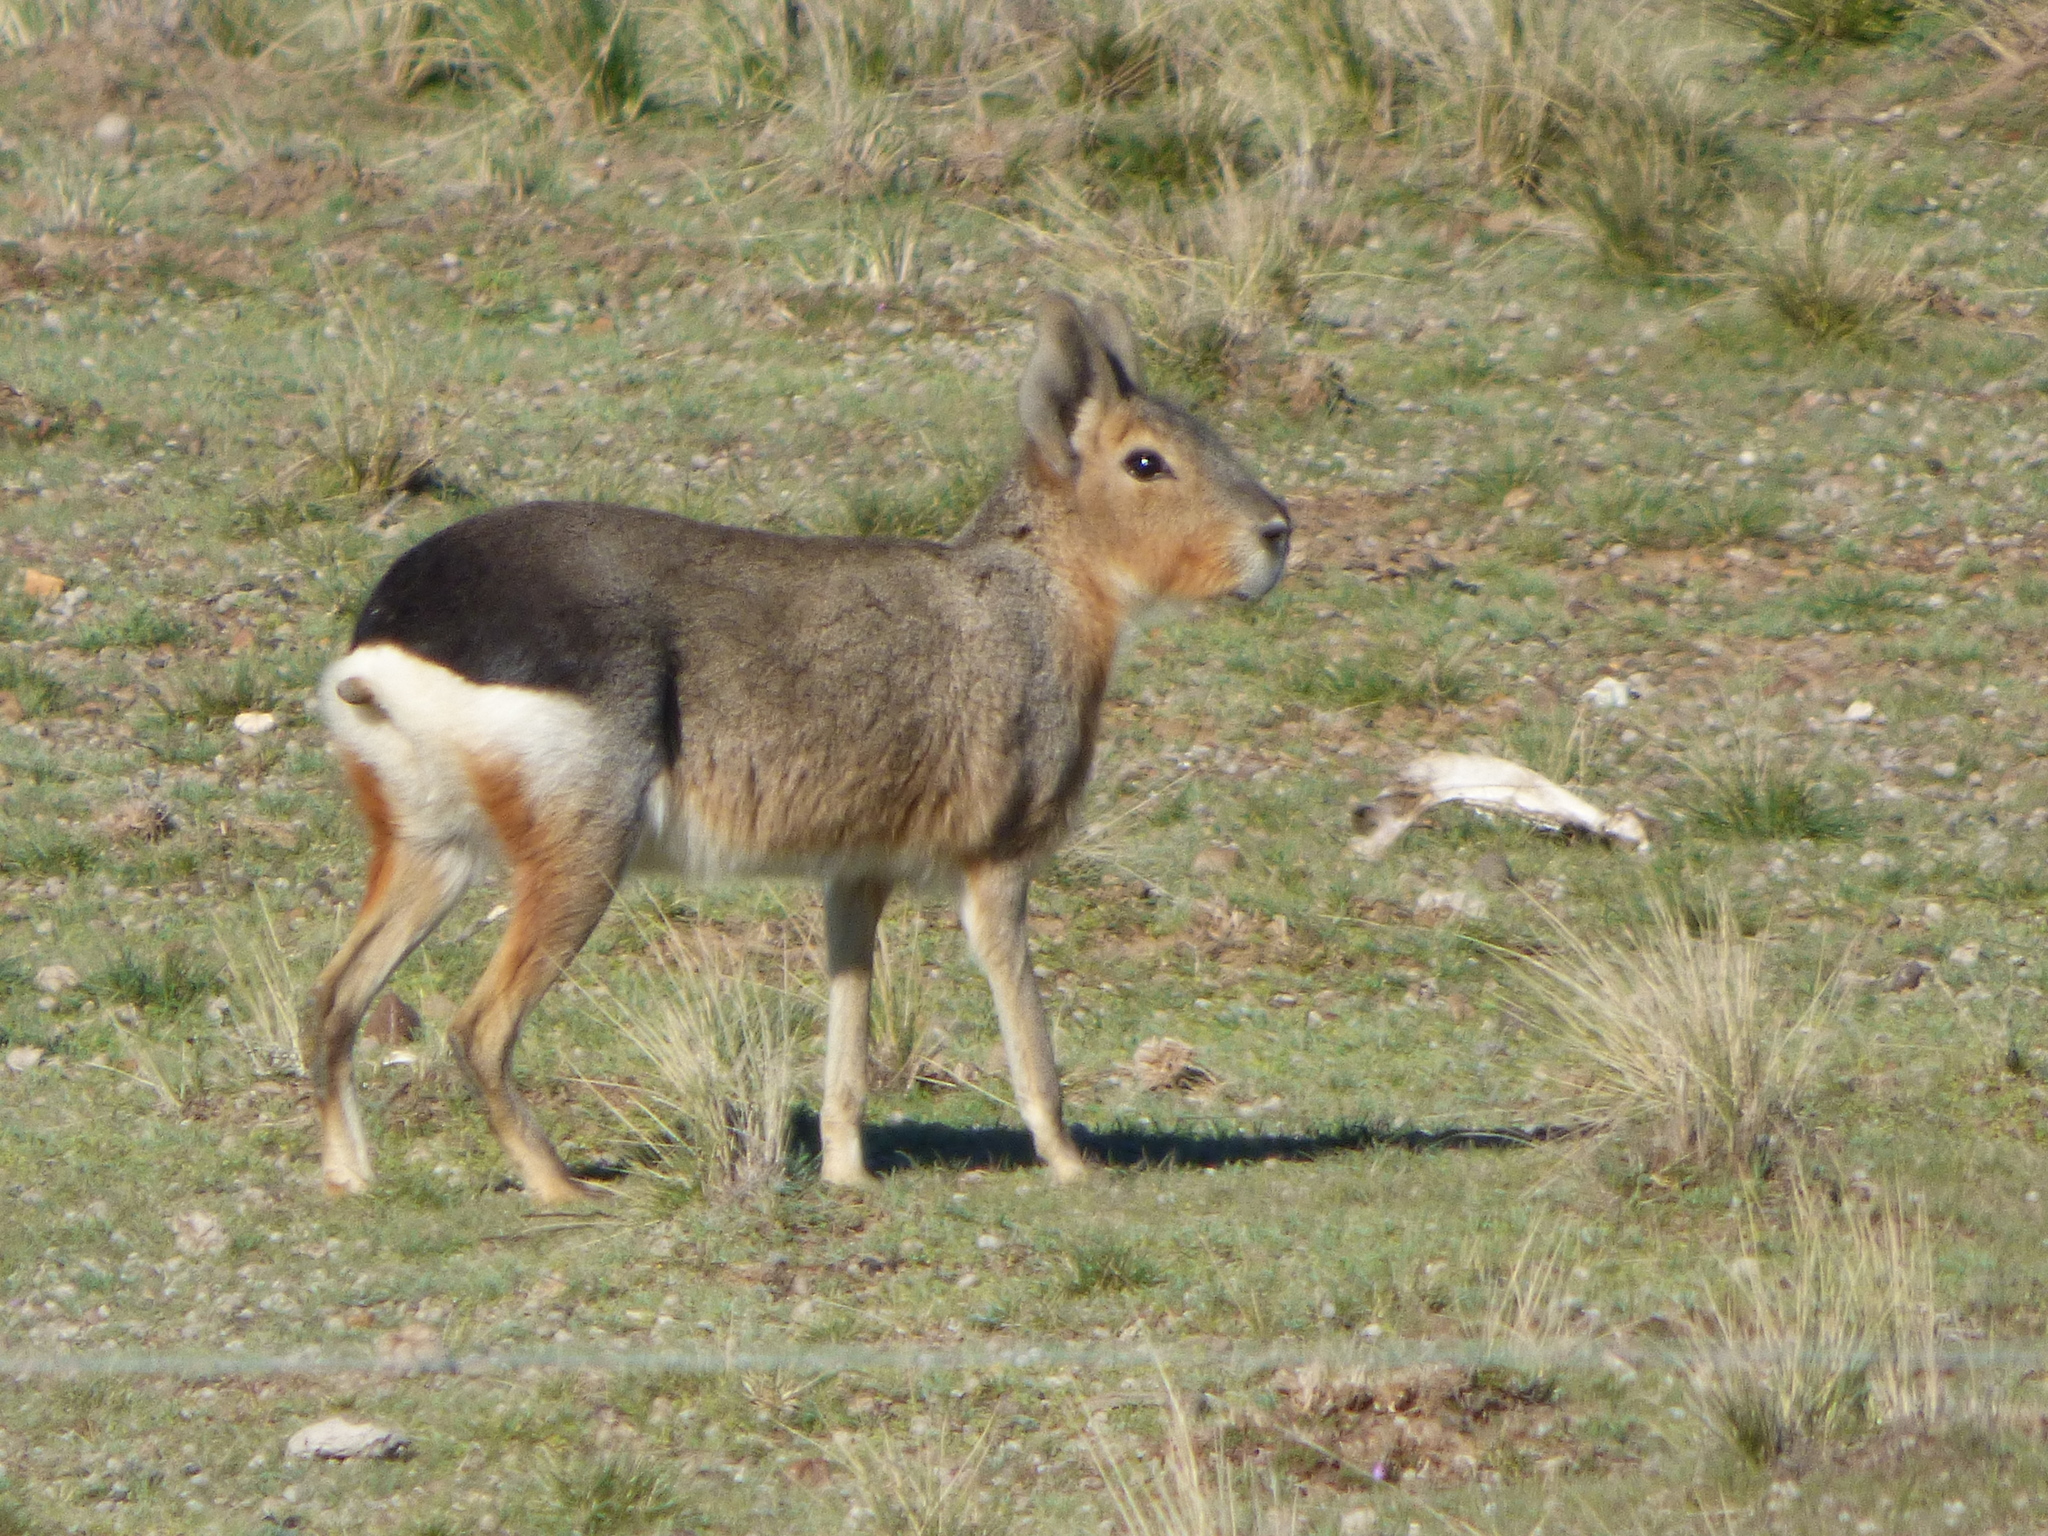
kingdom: Animalia
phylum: Chordata
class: Mammalia
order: Rodentia
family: Caviidae
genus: Dolichotis
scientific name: Dolichotis patagonum
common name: Patagonian mara
